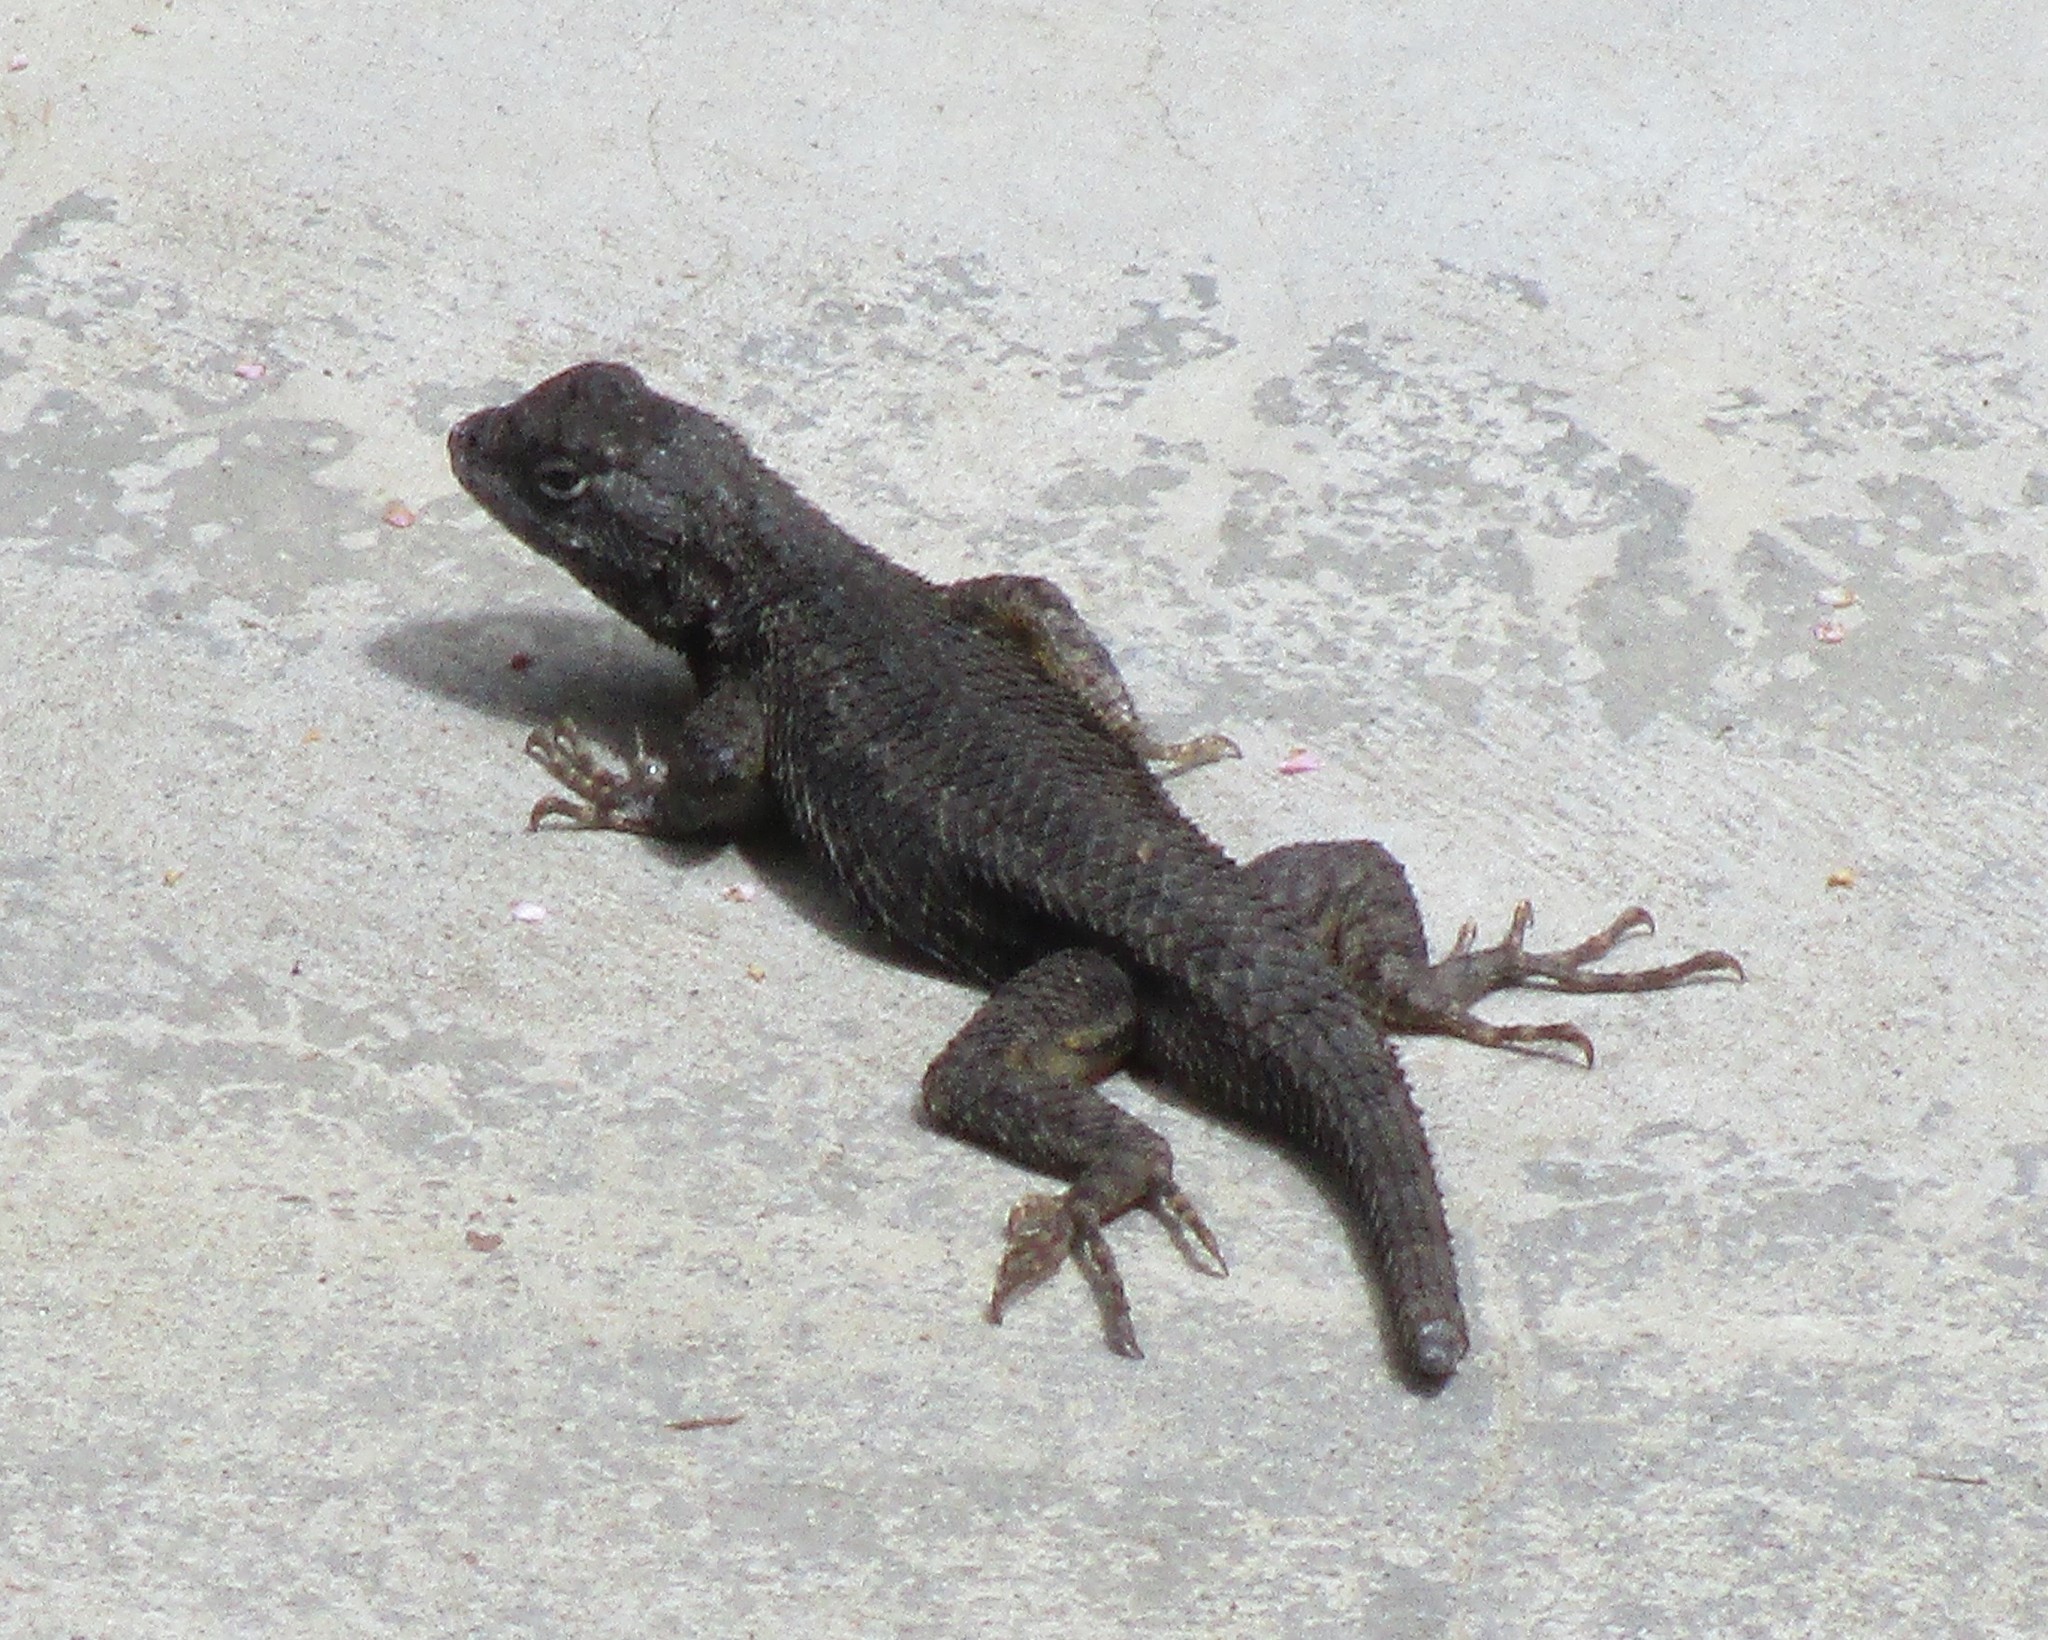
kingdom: Animalia
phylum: Chordata
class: Squamata
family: Phrynosomatidae
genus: Sceloporus
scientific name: Sceloporus occidentalis
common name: Western fence lizard
